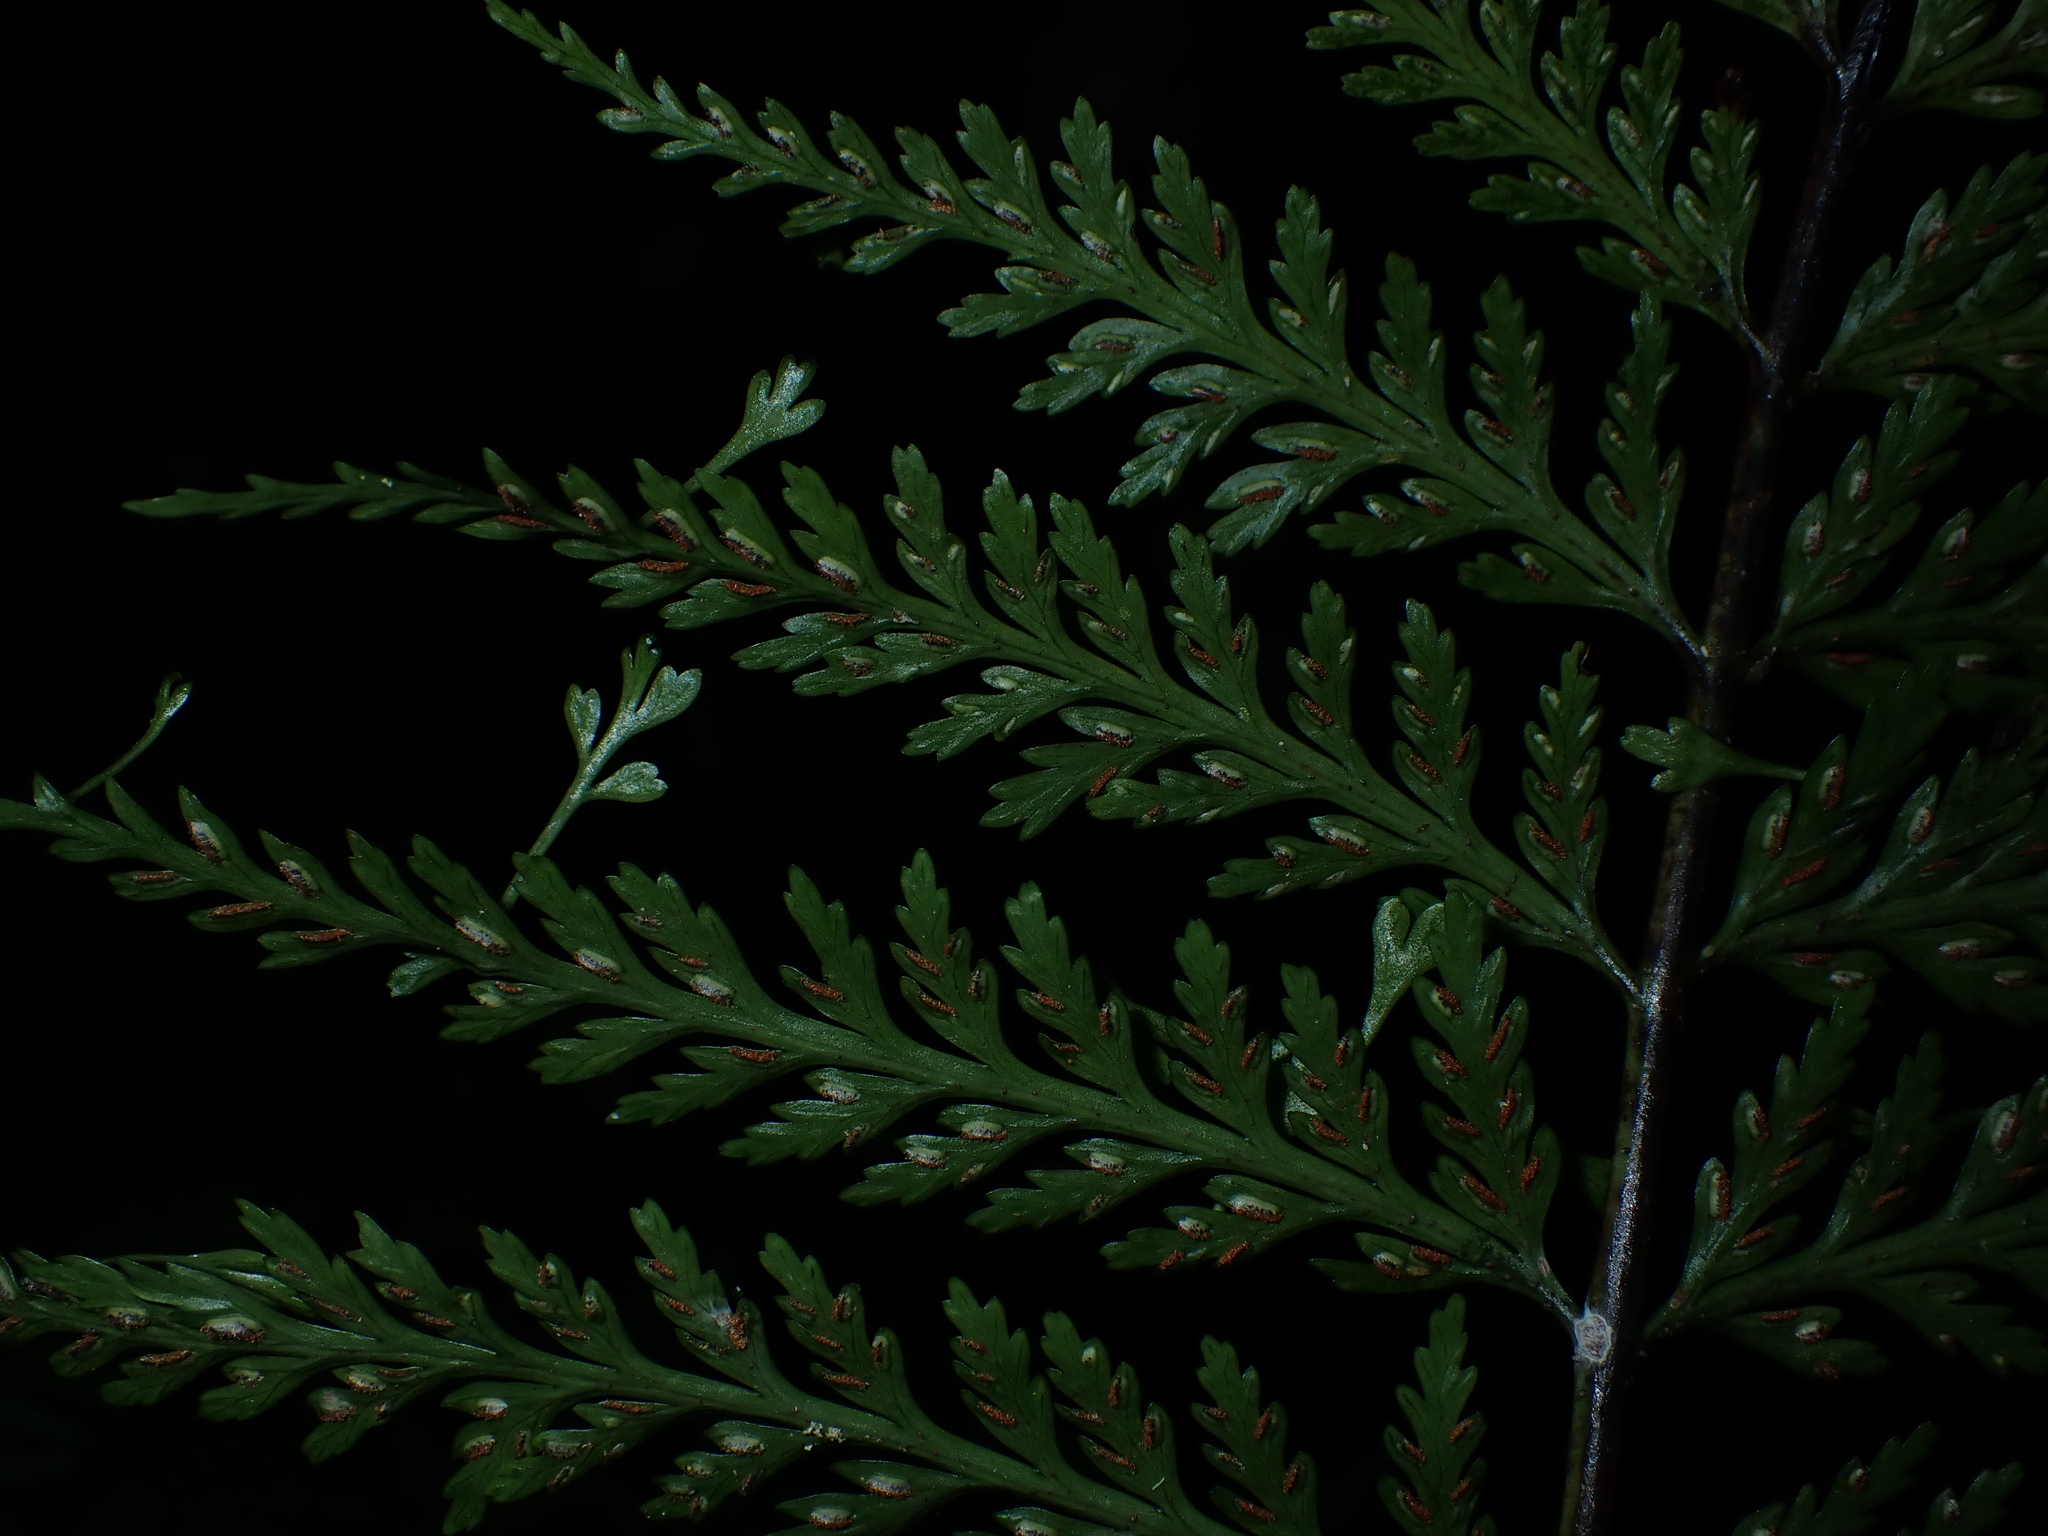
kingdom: Plantae
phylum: Tracheophyta
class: Polypodiopsida
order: Polypodiales
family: Aspleniaceae
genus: Asplenium
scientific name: Asplenium bulbiferum
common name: Mother fern
